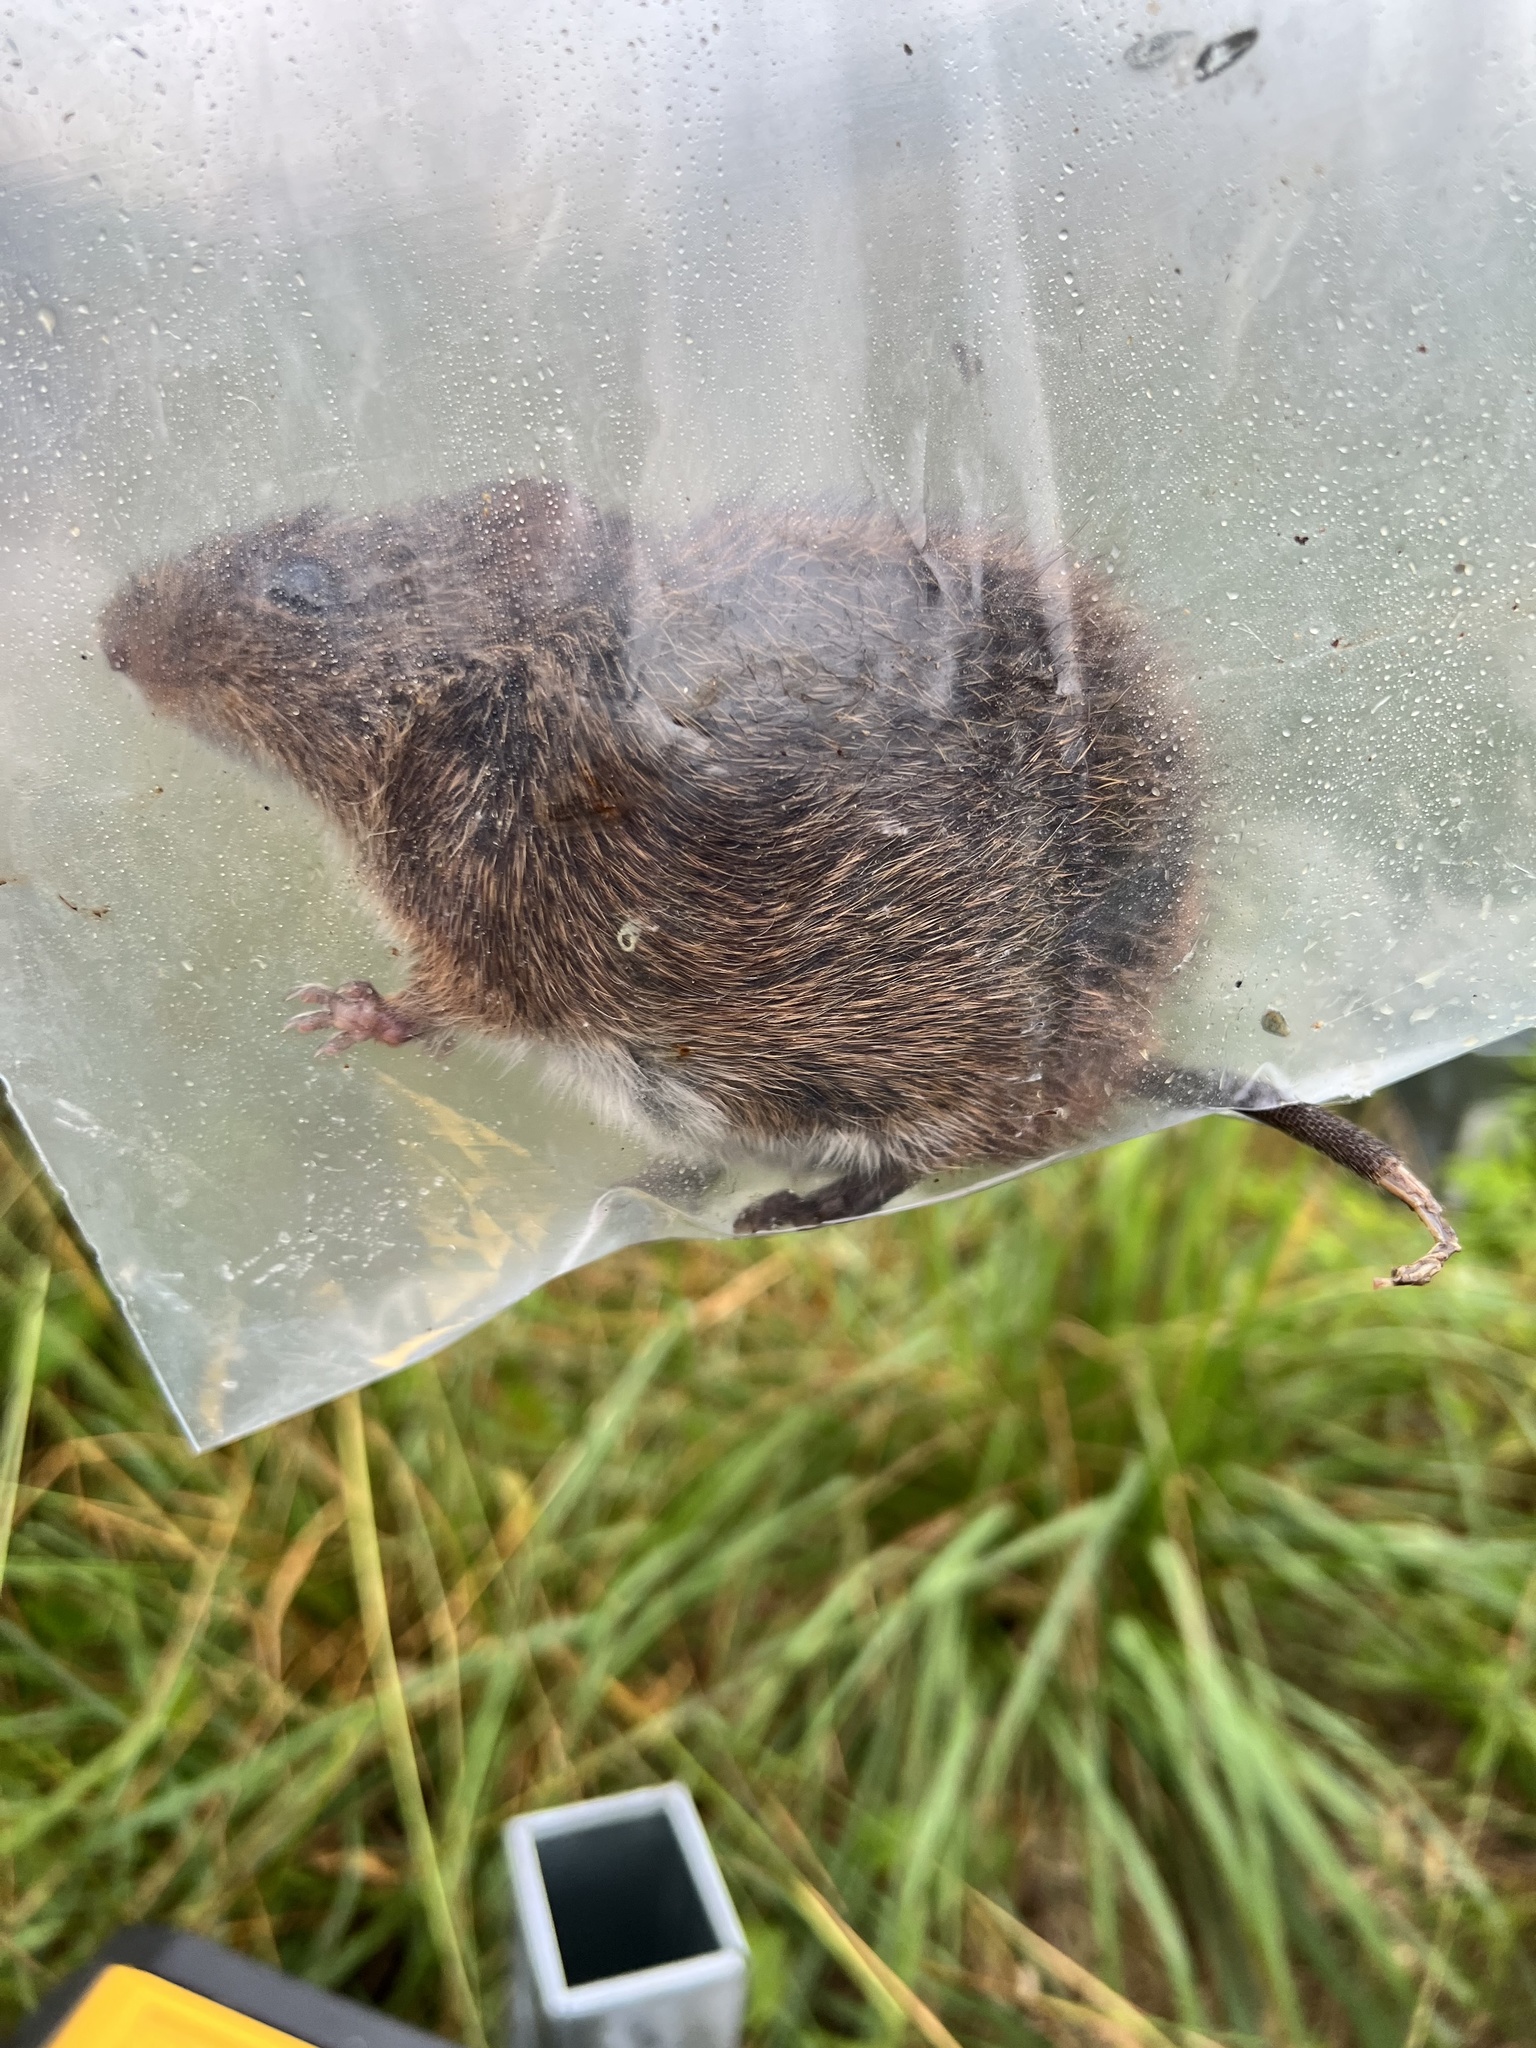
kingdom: Animalia
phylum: Chordata
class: Mammalia
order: Rodentia
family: Cricetidae
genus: Sigmodon
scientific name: Sigmodon hispidus
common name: Hispid cotton rat
